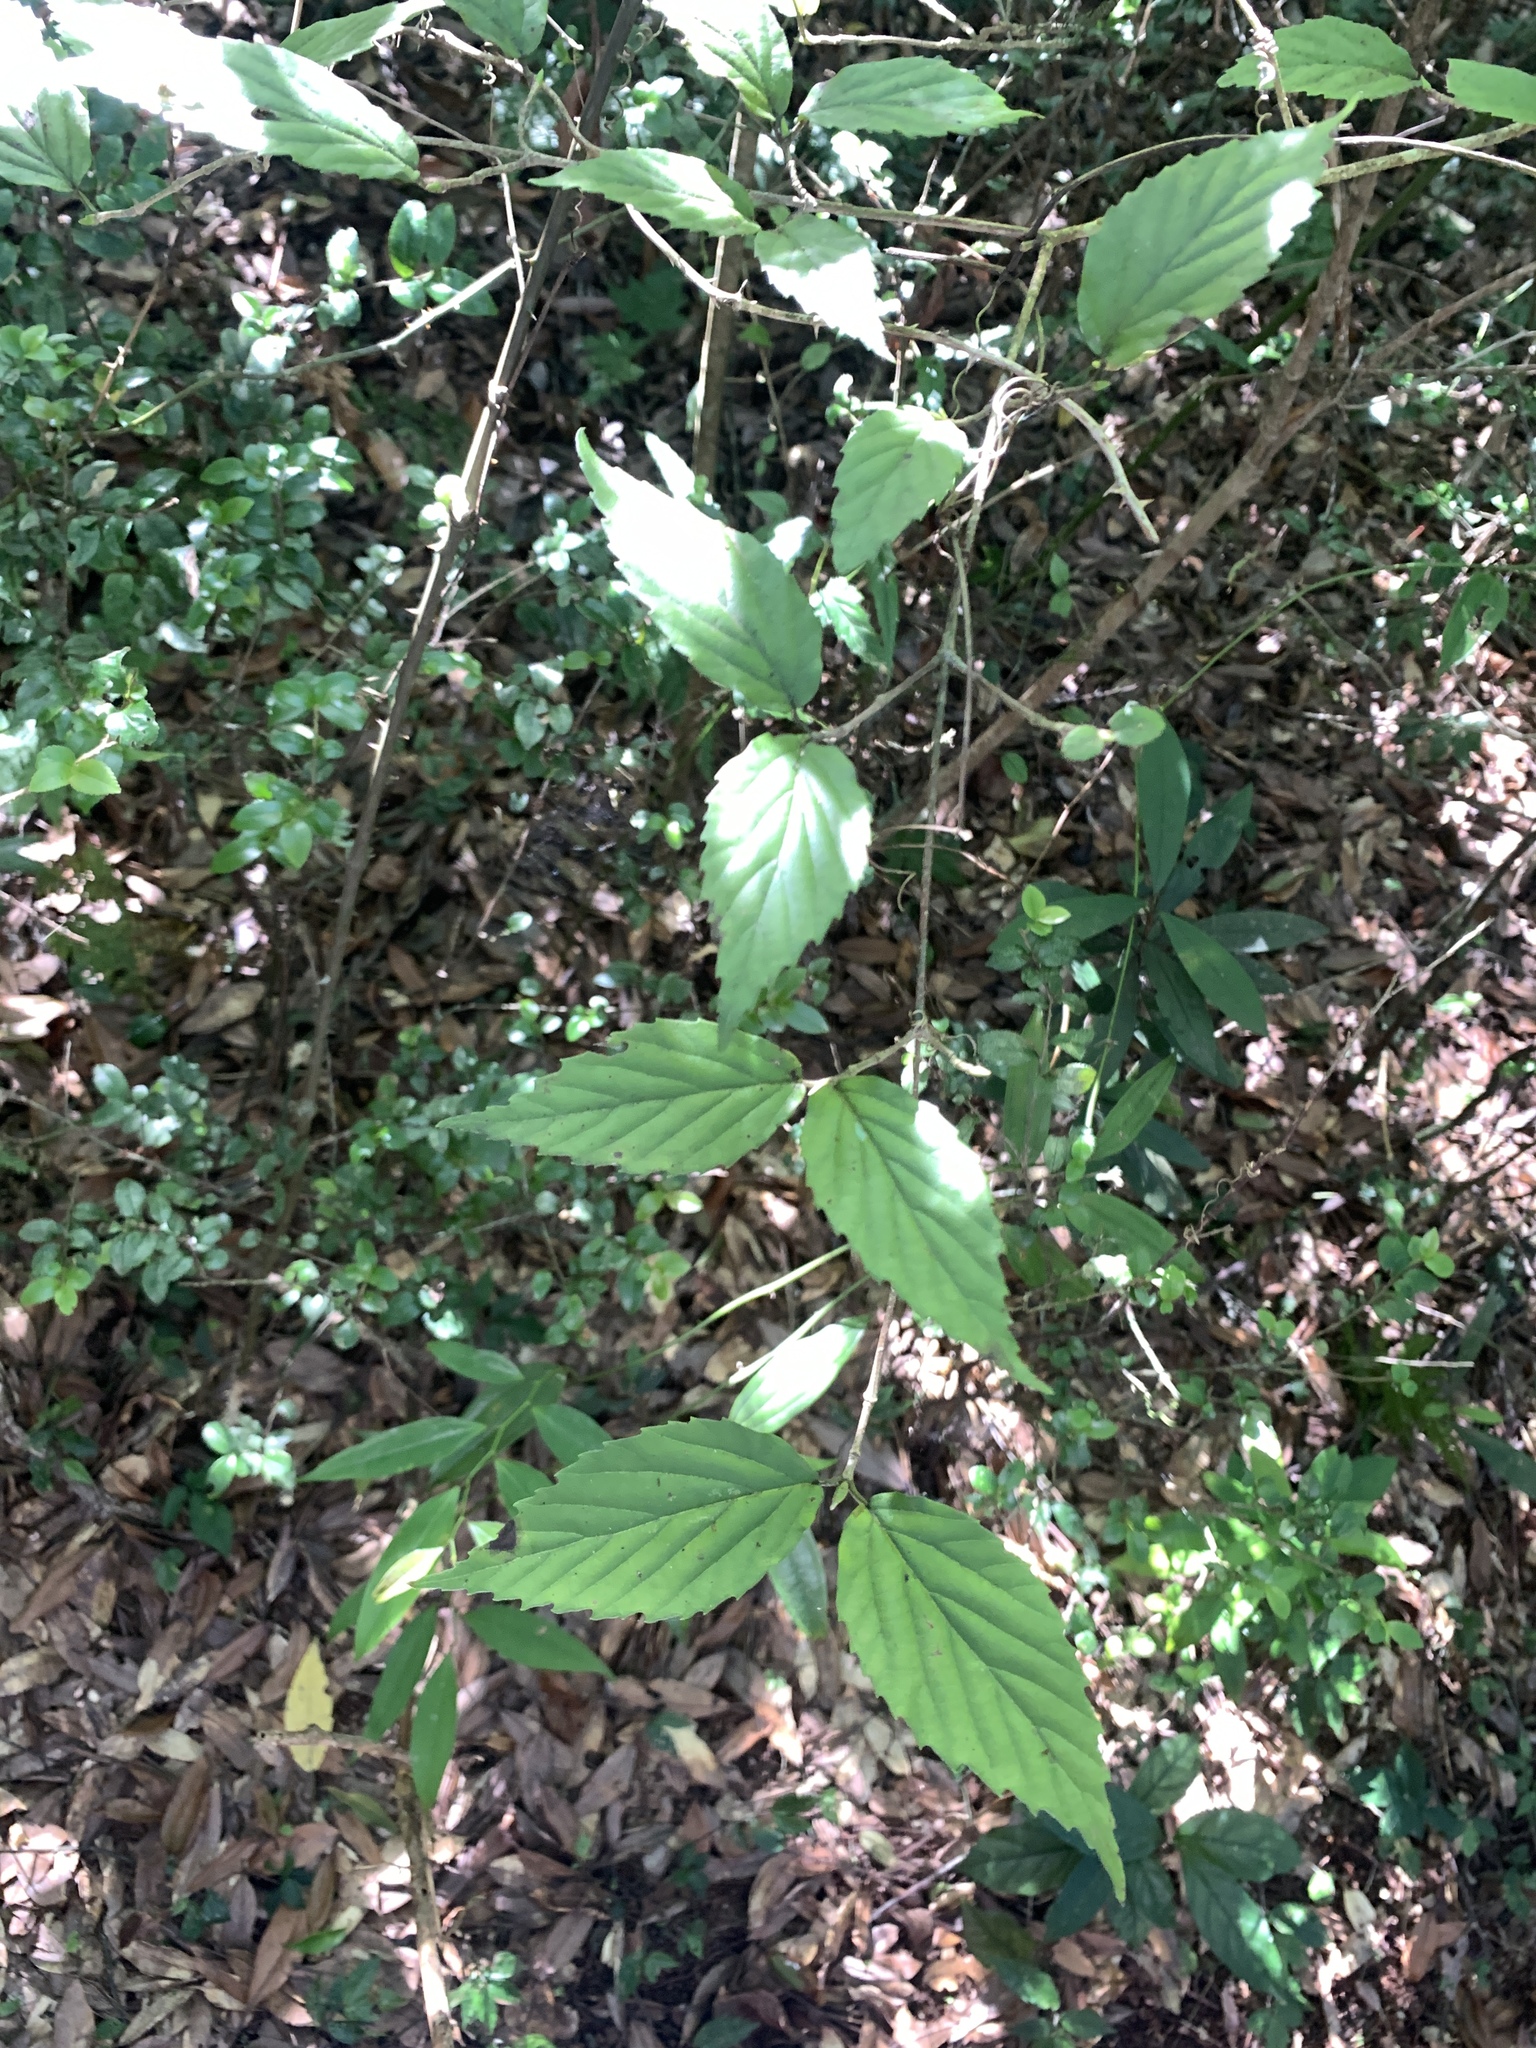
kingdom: Plantae
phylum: Tracheophyta
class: Magnoliopsida
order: Dipsacales
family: Viburnaceae
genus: Viburnum
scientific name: Viburnum luzonicum
